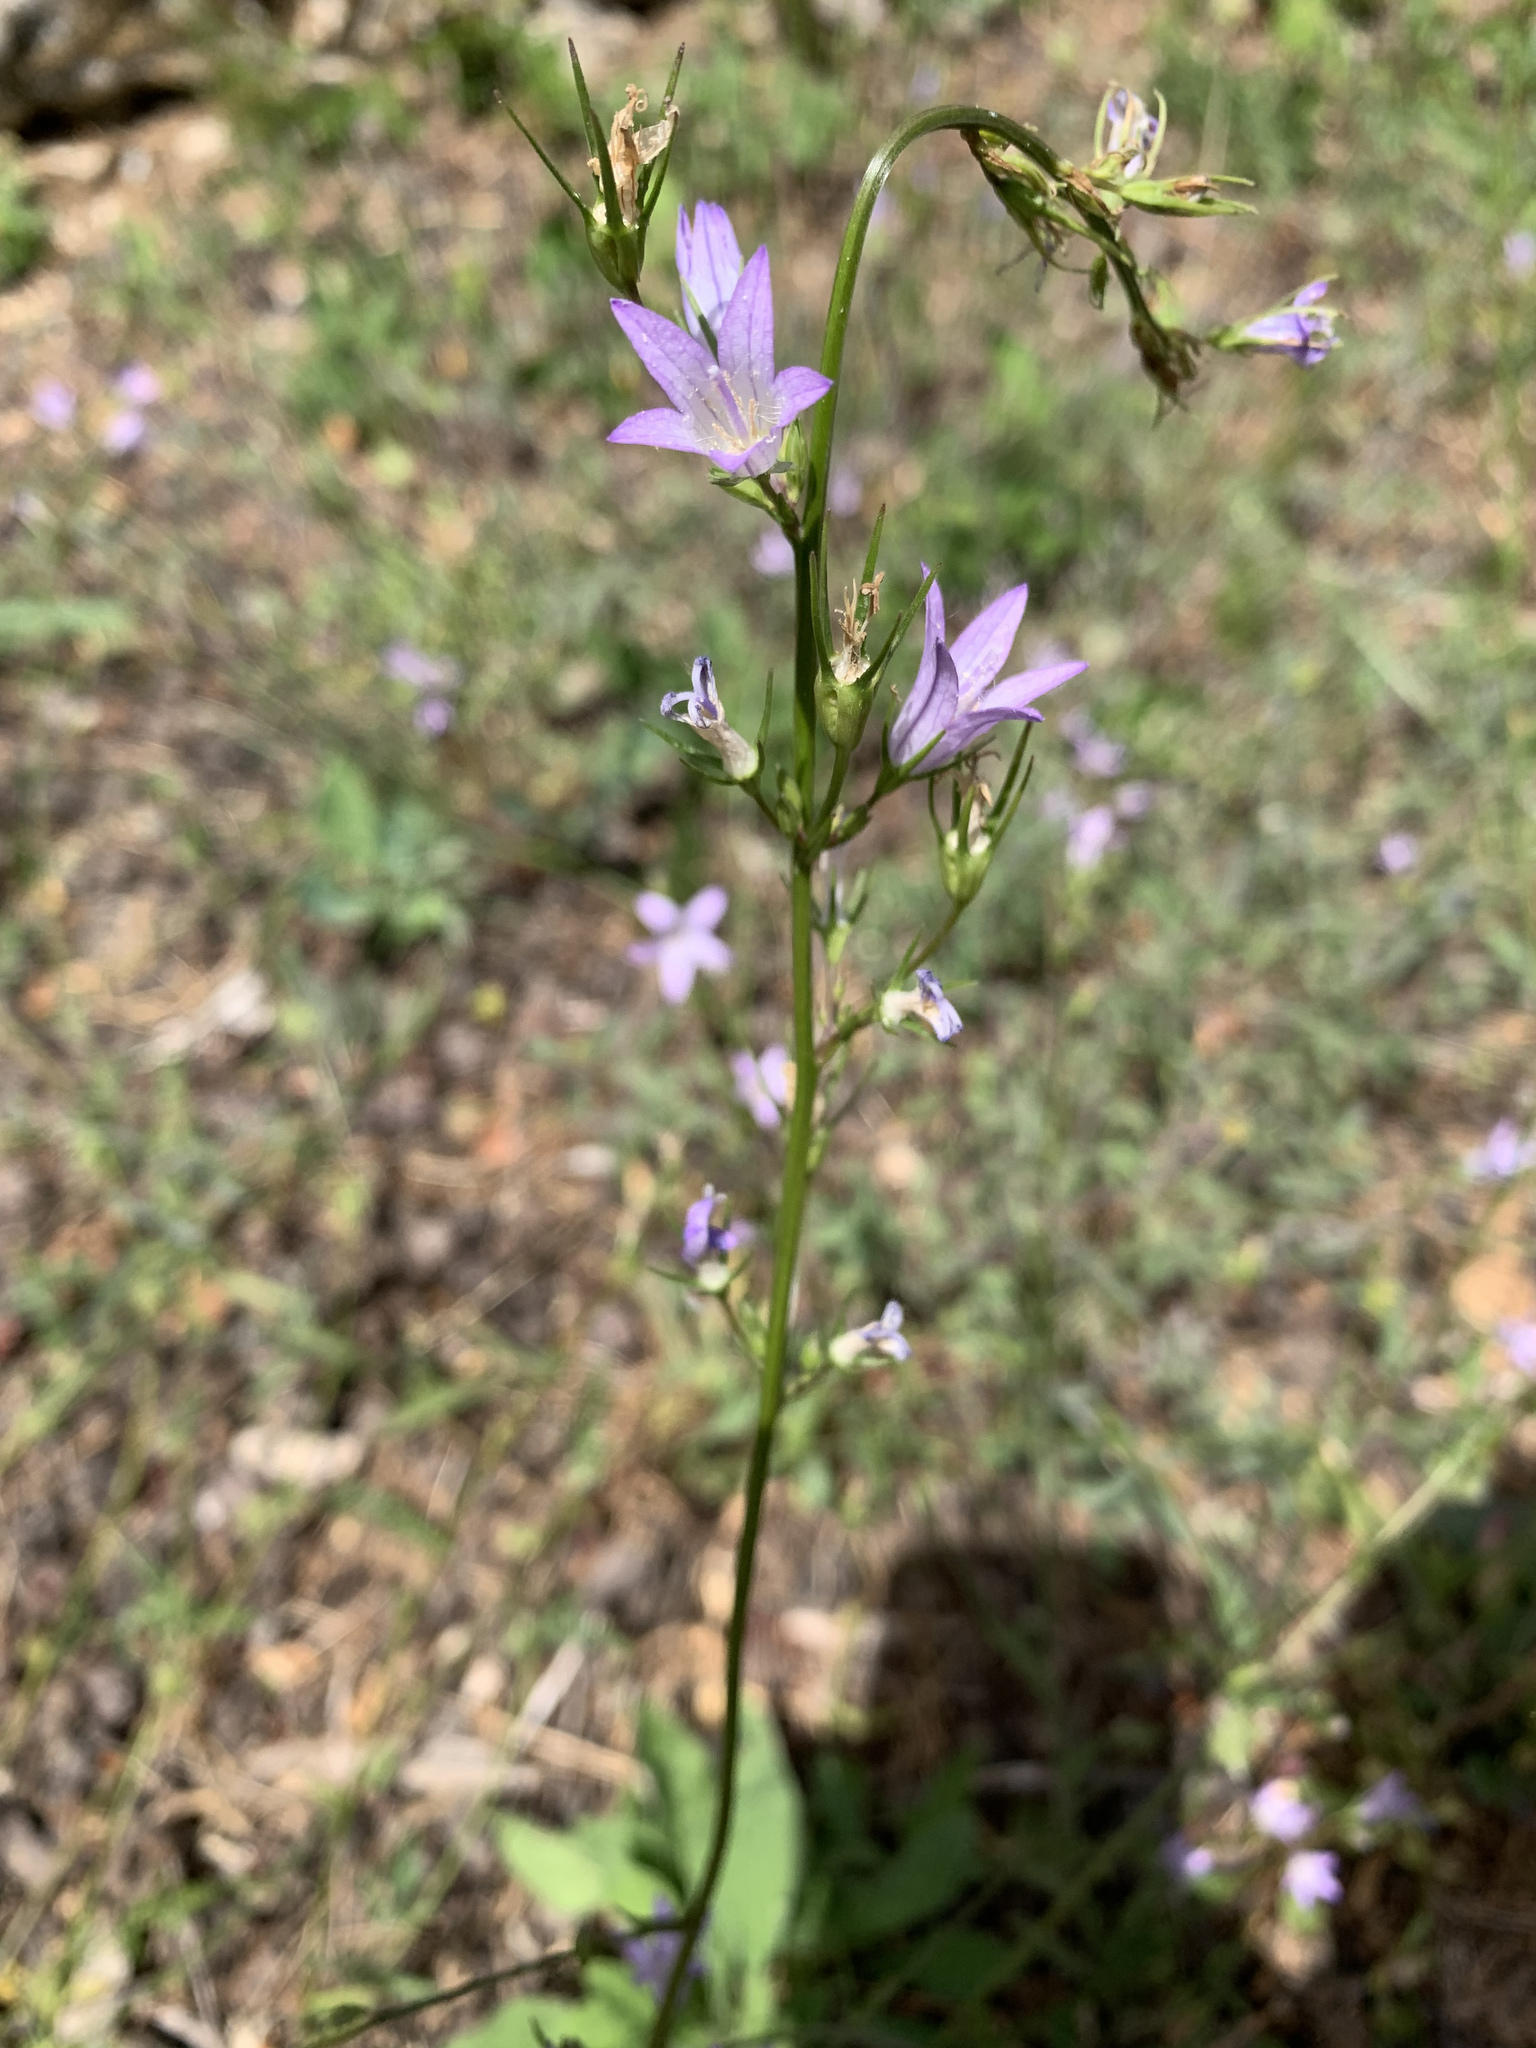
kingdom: Plantae
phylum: Tracheophyta
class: Magnoliopsida
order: Asterales
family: Campanulaceae
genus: Campanula
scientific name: Campanula rapunculus
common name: Rampion bellflower
